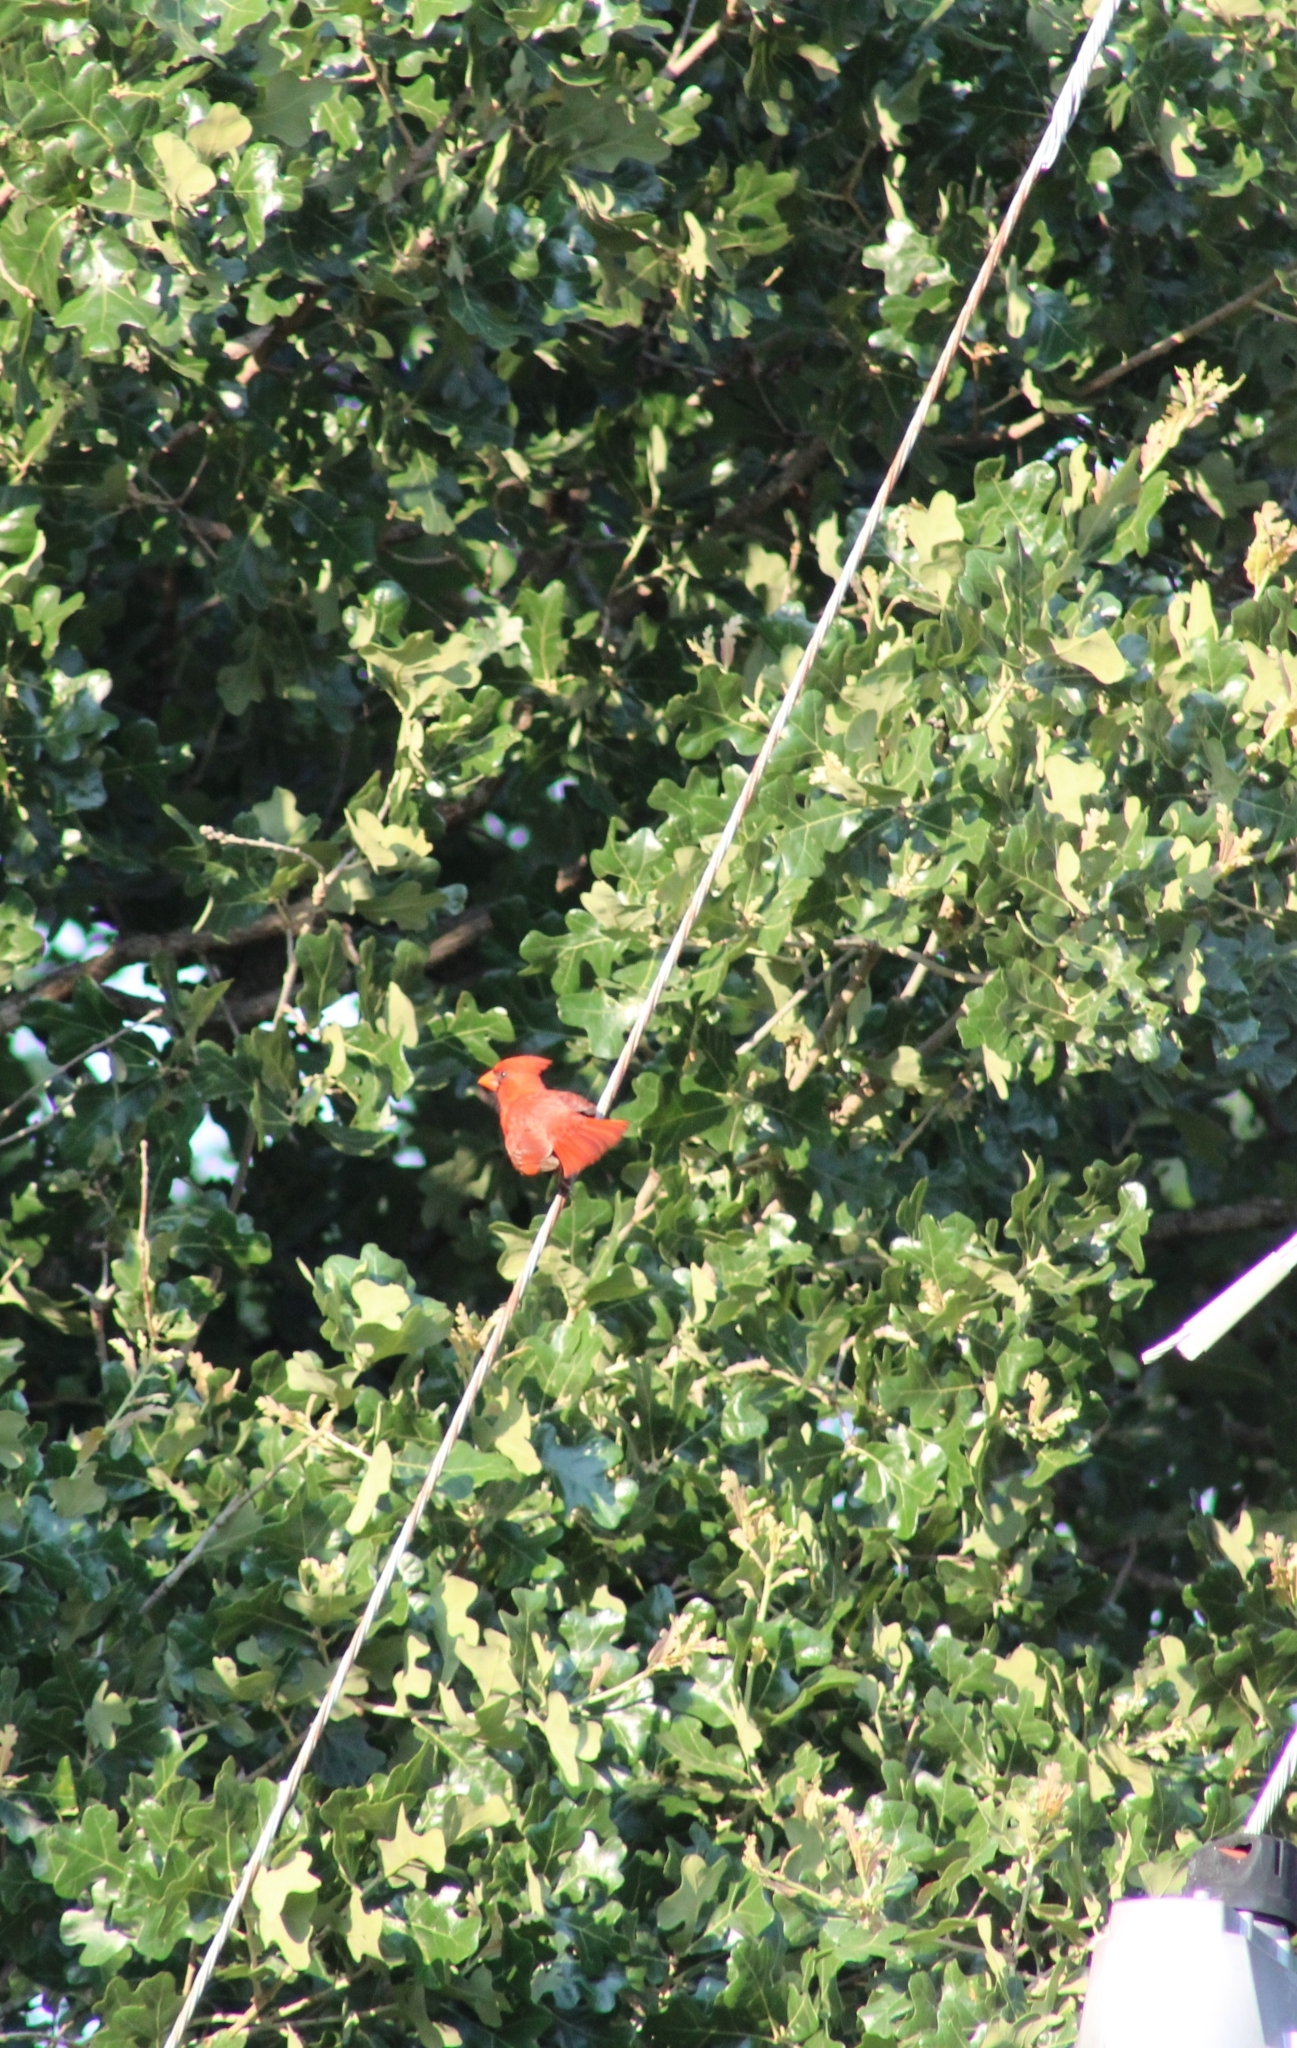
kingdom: Animalia
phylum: Chordata
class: Aves
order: Passeriformes
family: Cardinalidae
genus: Cardinalis
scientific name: Cardinalis cardinalis
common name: Northern cardinal
